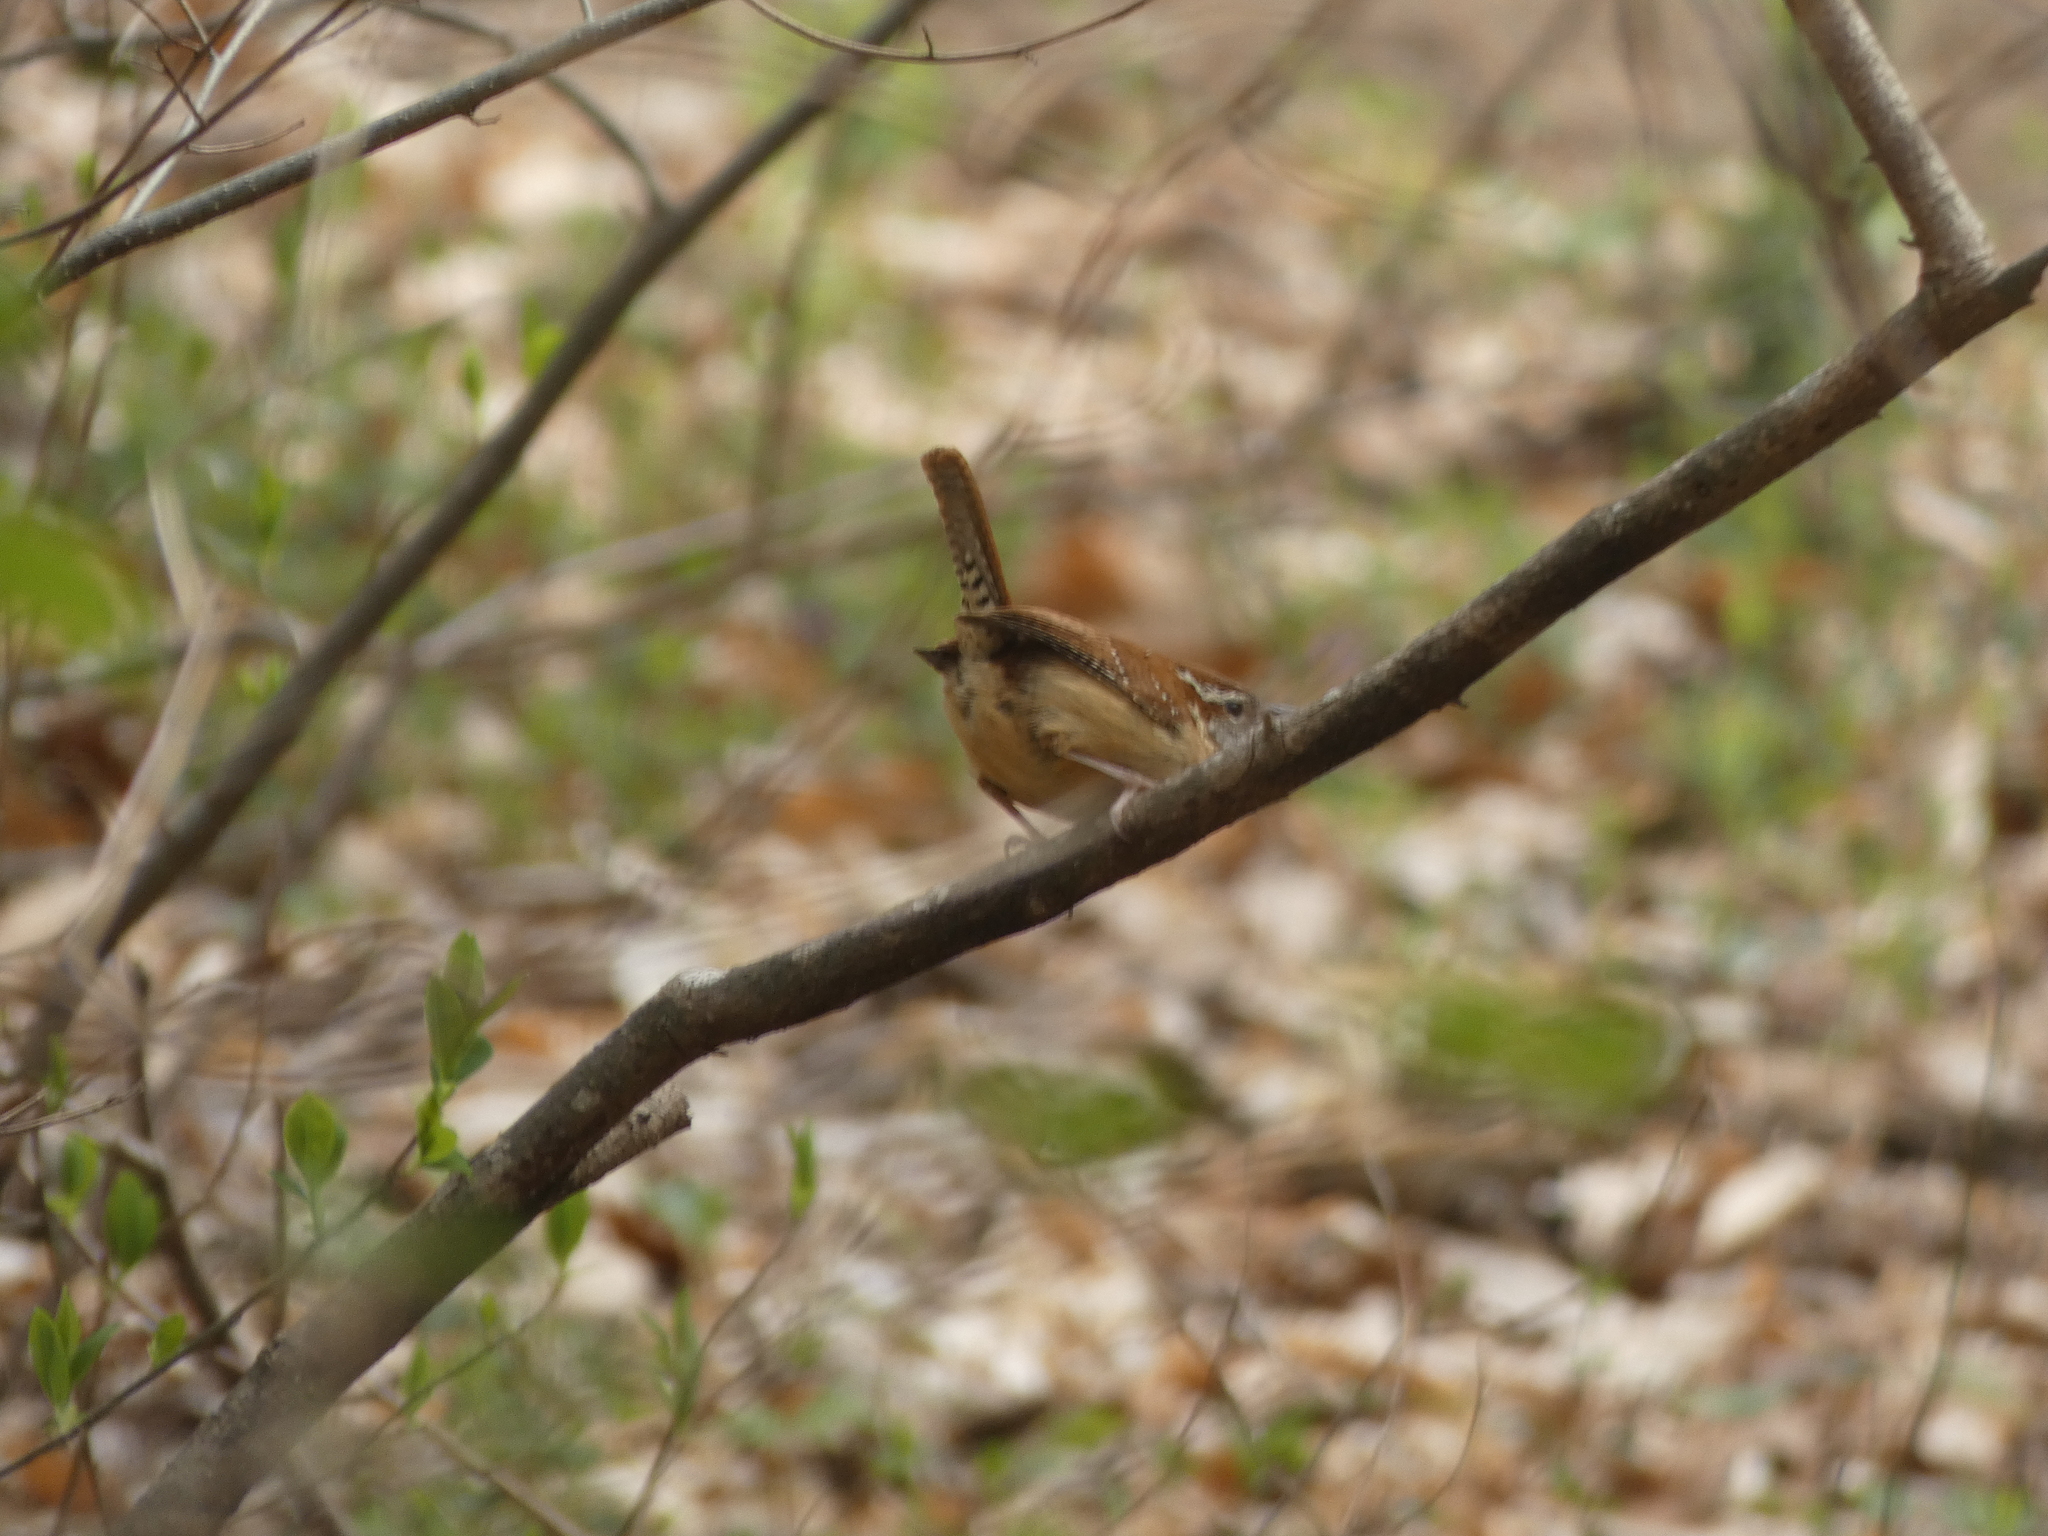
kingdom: Animalia
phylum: Chordata
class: Aves
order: Passeriformes
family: Troglodytidae
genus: Thryothorus
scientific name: Thryothorus ludovicianus
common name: Carolina wren
